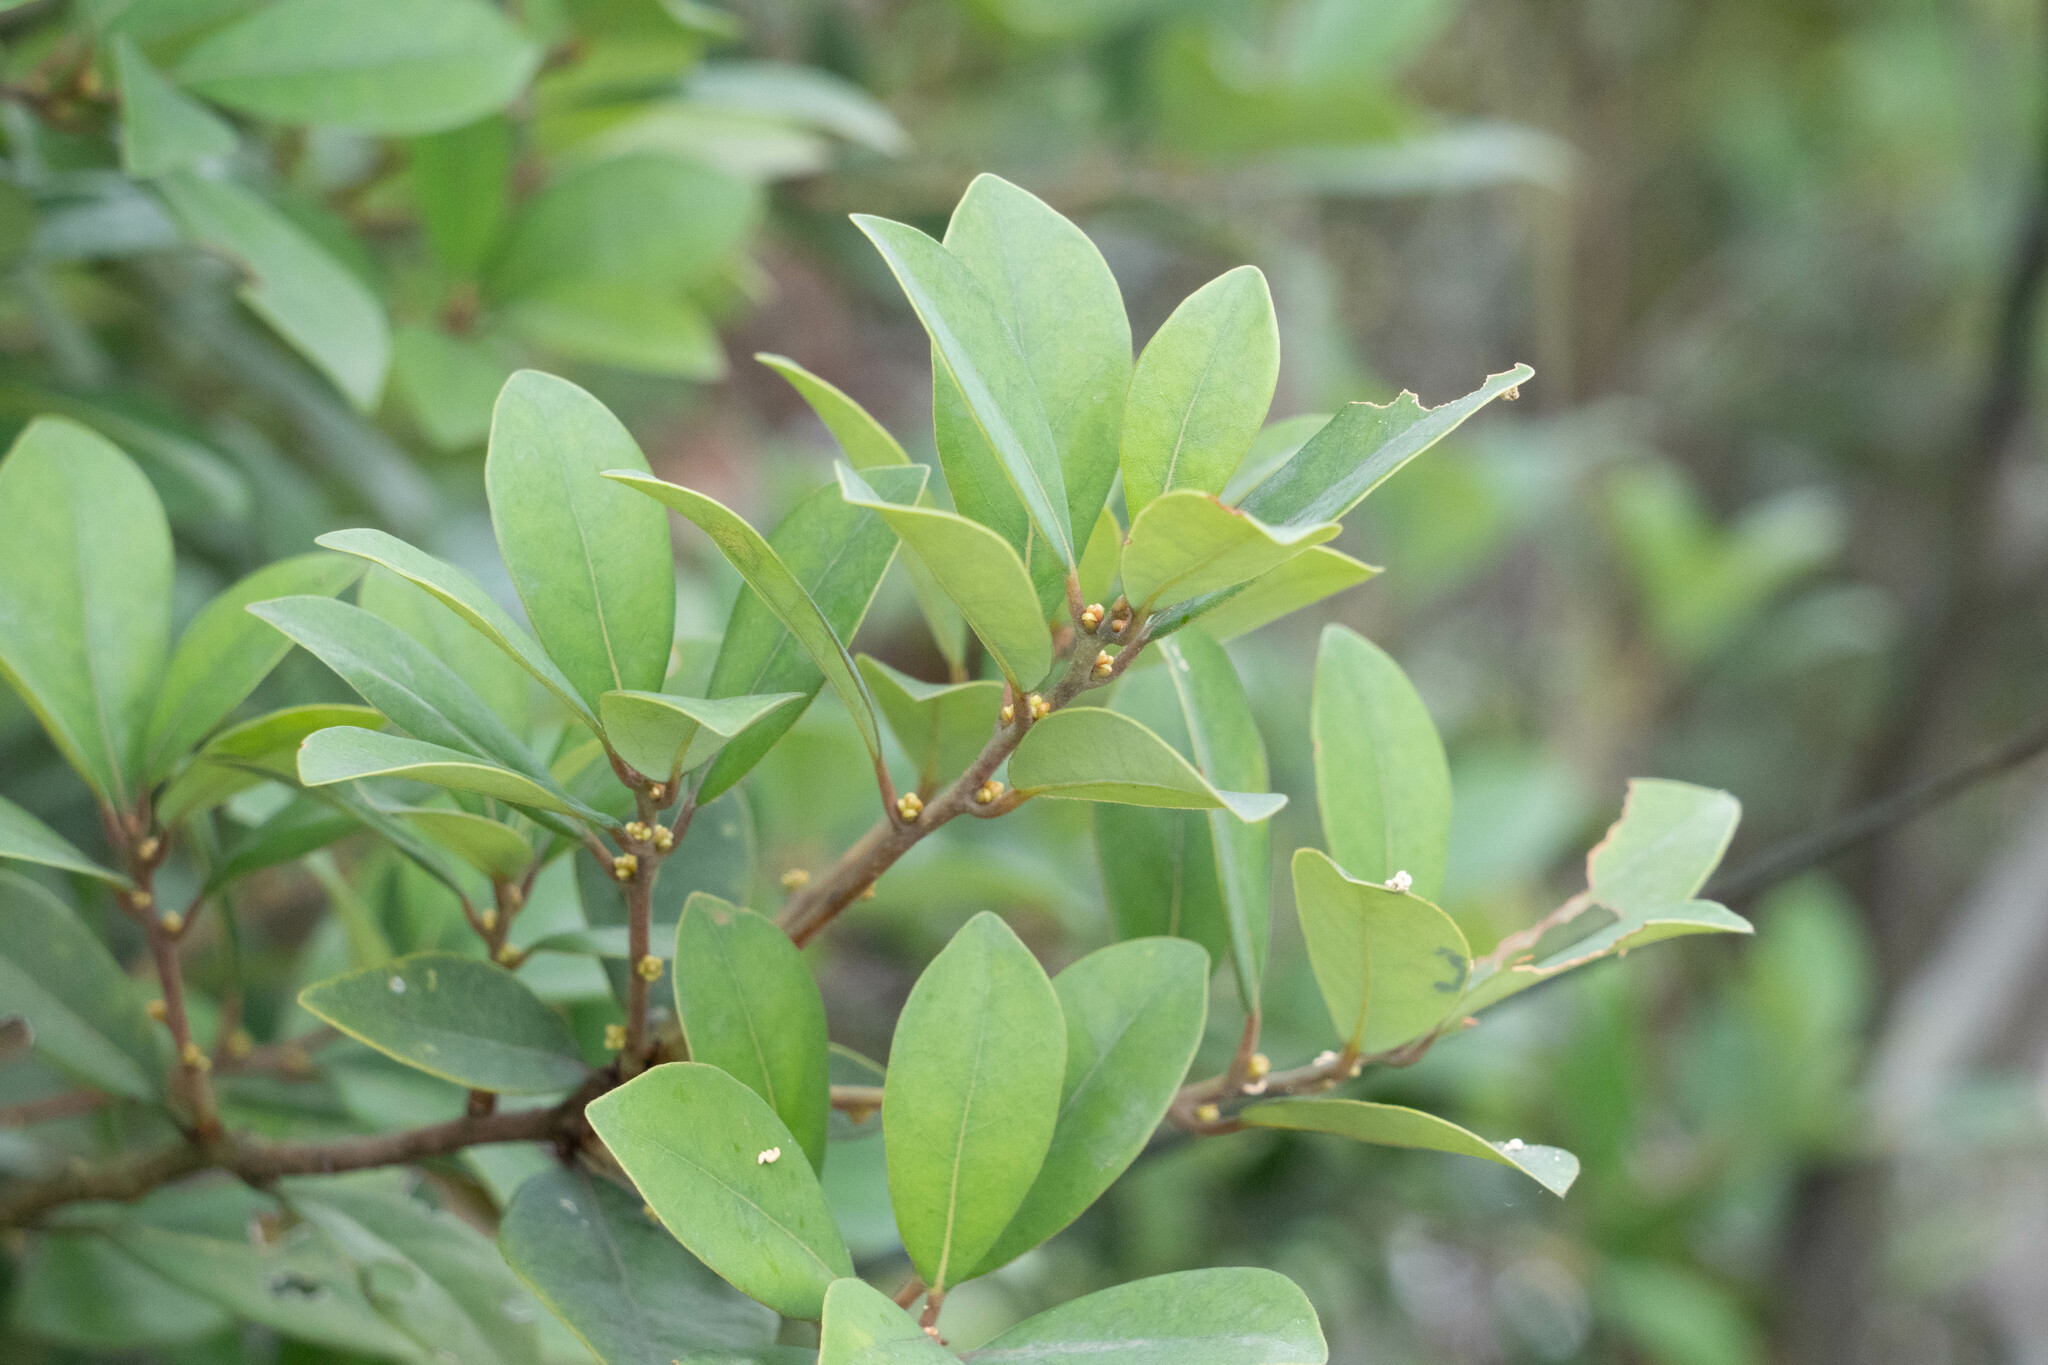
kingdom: Plantae
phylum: Tracheophyta
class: Magnoliopsida
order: Laurales
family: Lauraceae
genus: Litsea
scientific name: Litsea rotundifolia
